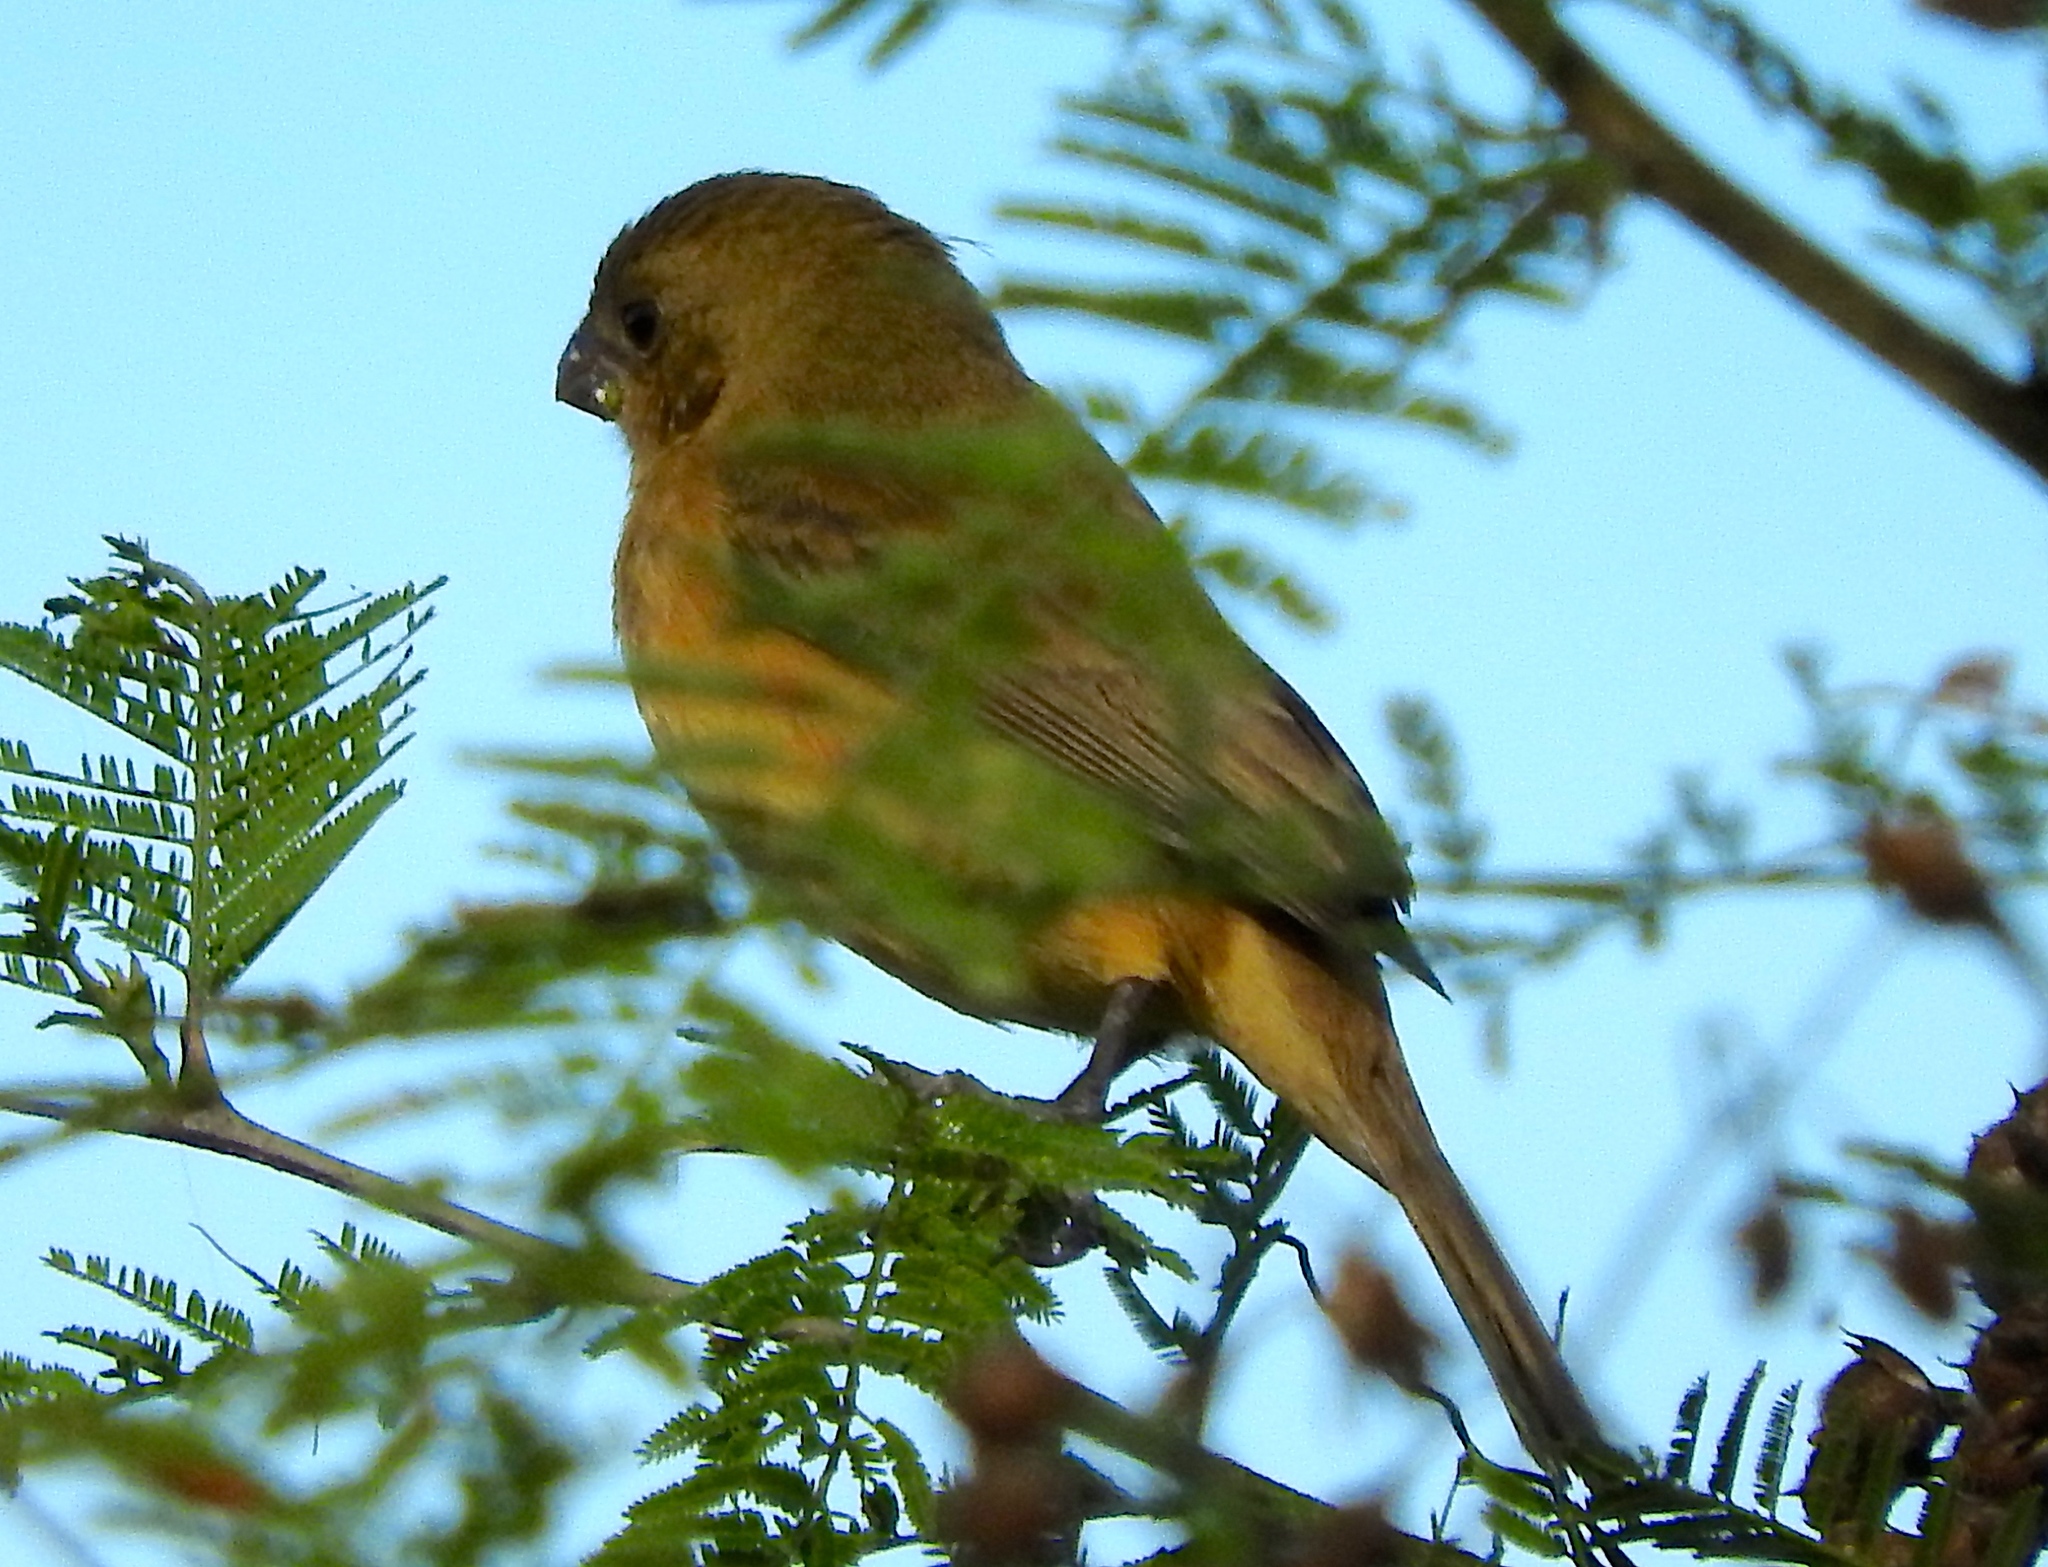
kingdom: Animalia
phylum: Chordata
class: Aves
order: Passeriformes
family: Thraupidae
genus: Sporophila
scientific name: Sporophila torqueola
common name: White-collared seedeater
